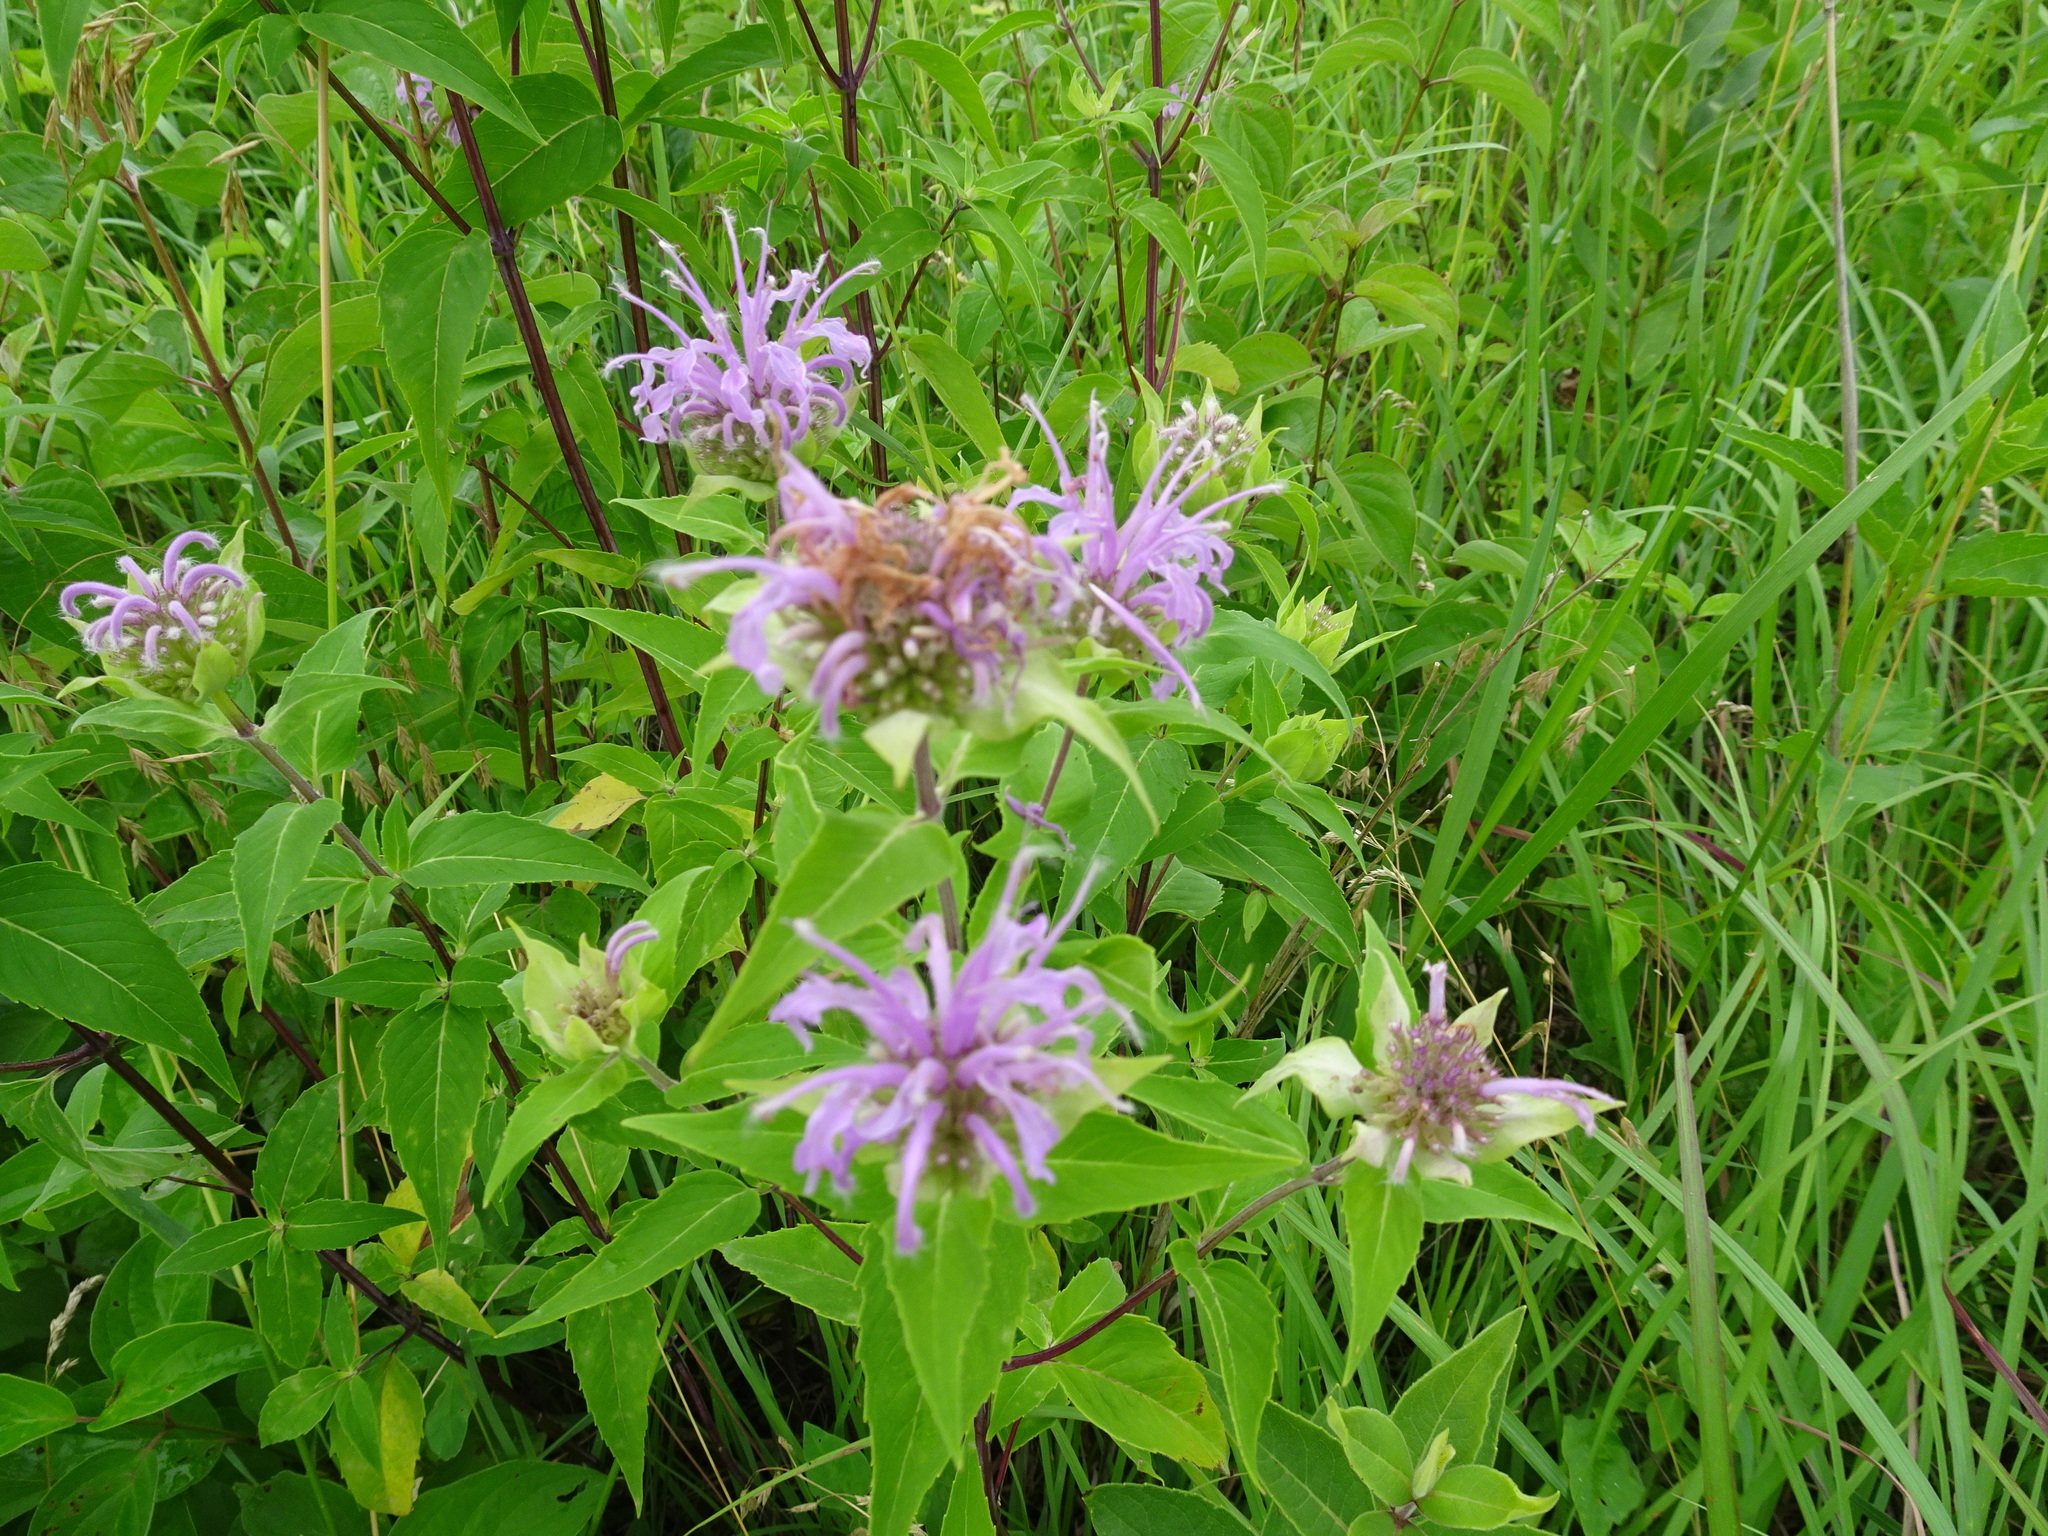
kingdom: Plantae
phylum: Tracheophyta
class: Magnoliopsida
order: Lamiales
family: Lamiaceae
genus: Monarda
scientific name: Monarda fistulosa
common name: Purple beebalm
